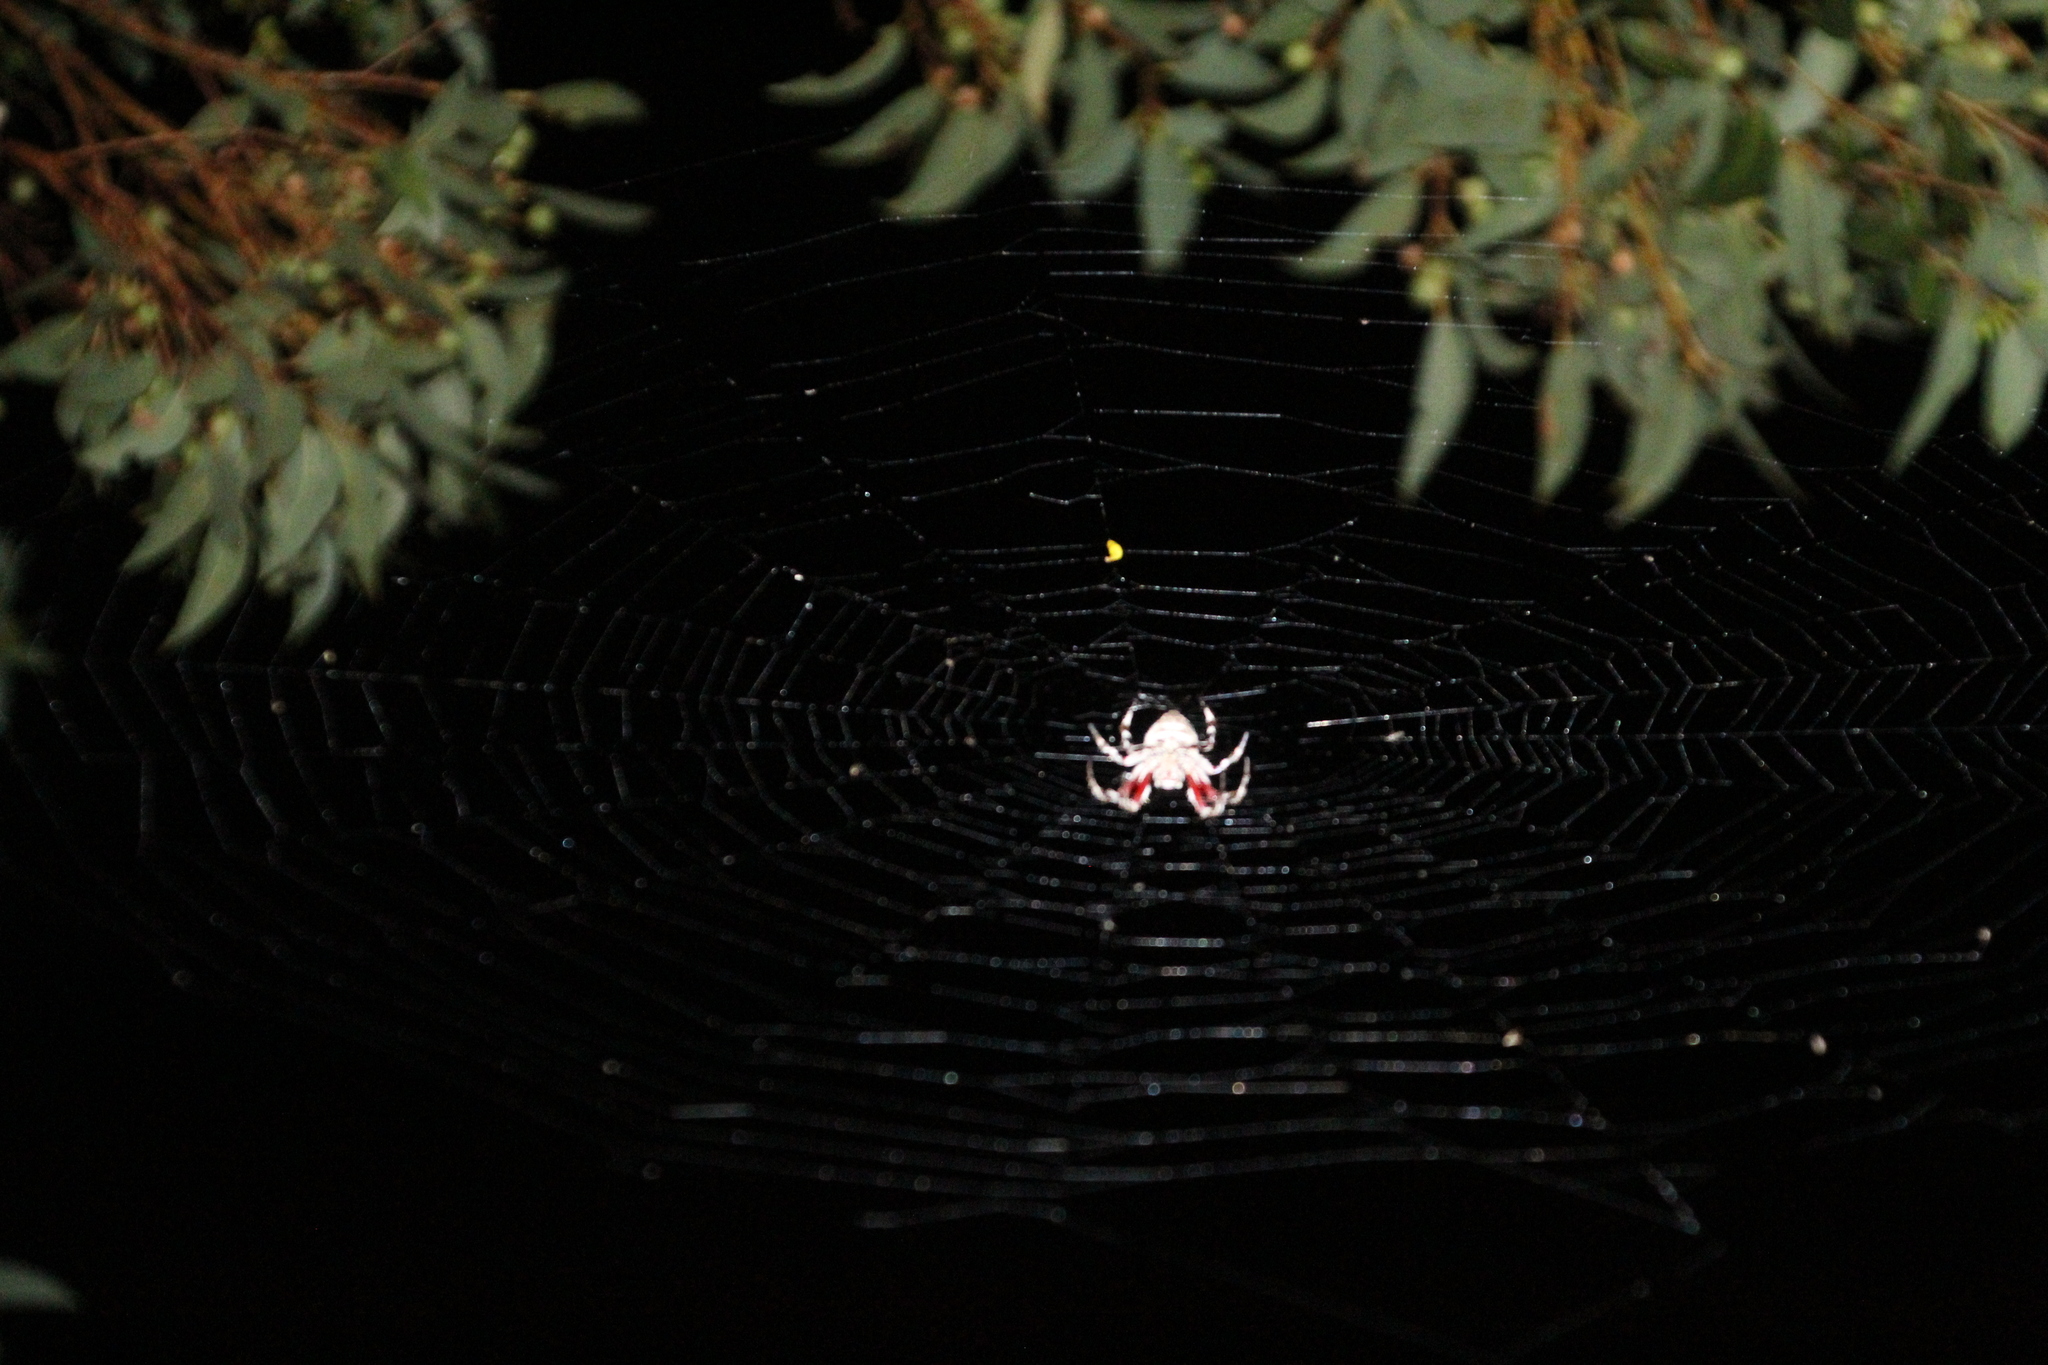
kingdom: Animalia
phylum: Arthropoda
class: Arachnida
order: Araneae
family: Araneidae
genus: Hortophora
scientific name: Hortophora biapicata
